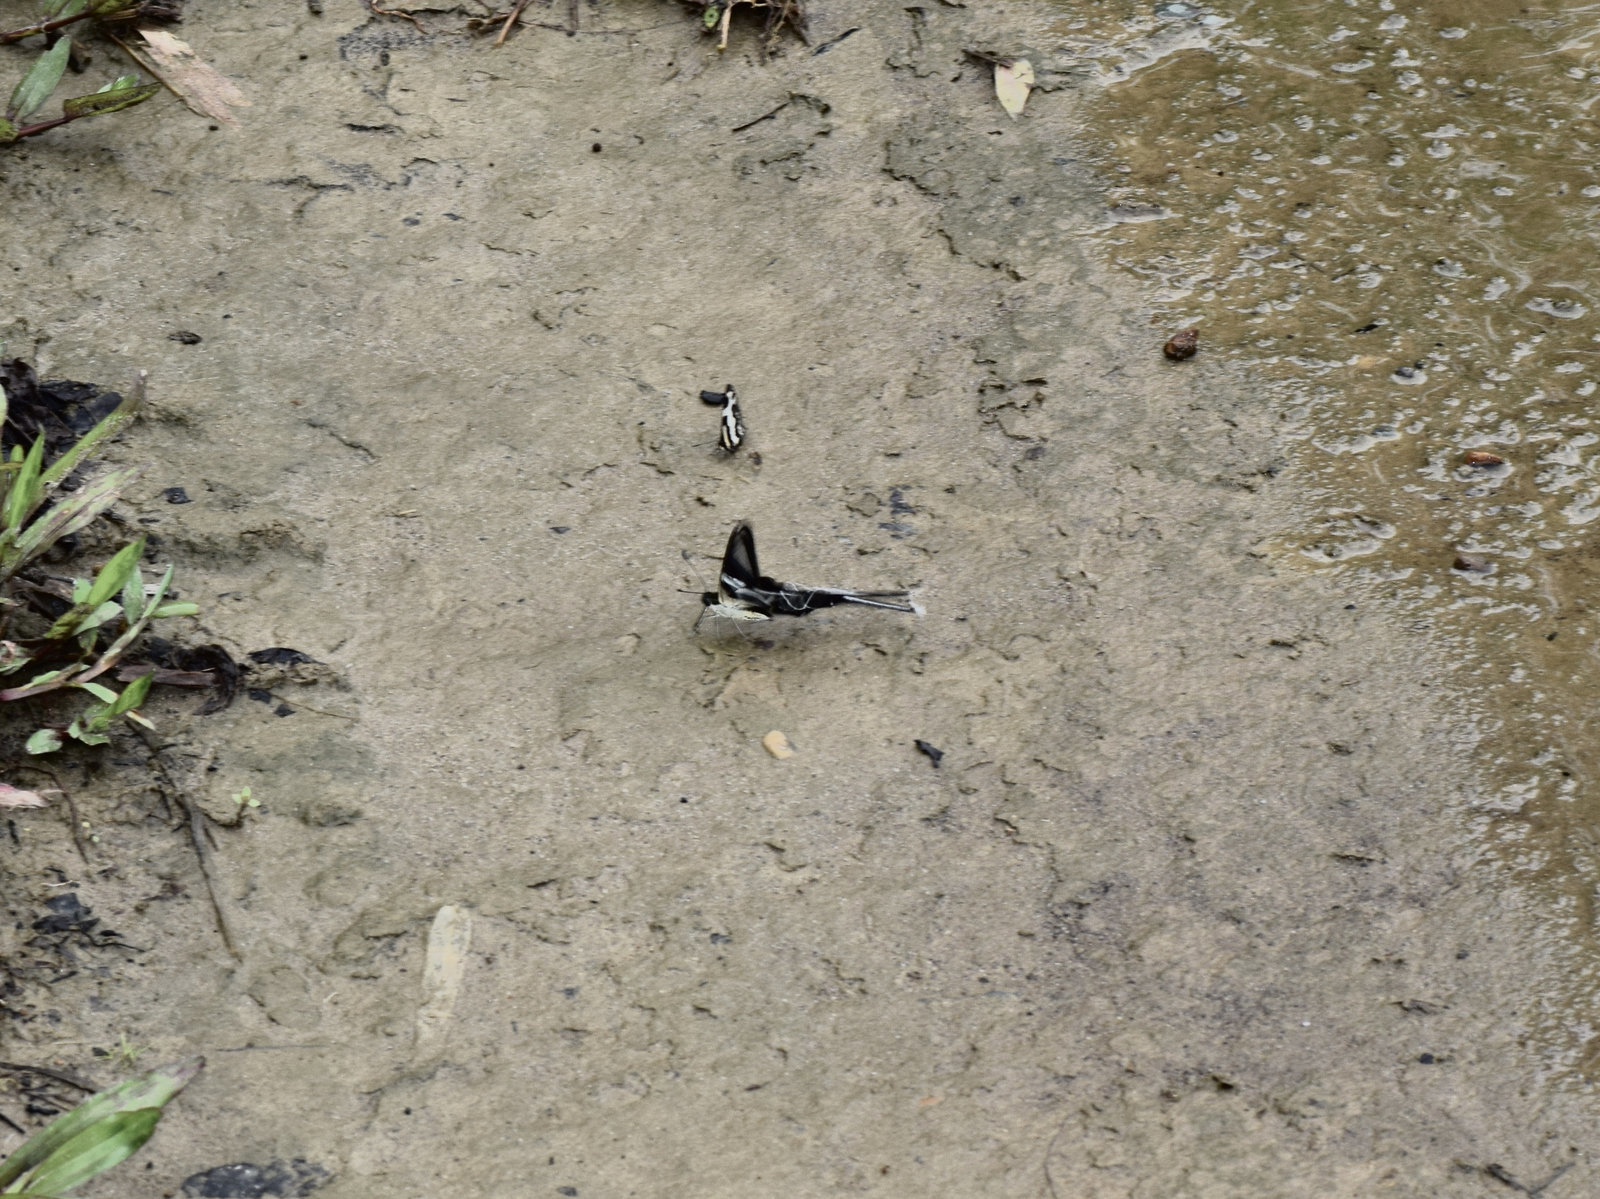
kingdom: Animalia
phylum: Arthropoda
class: Insecta
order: Lepidoptera
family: Papilionidae
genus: Lamproptera
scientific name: Lamproptera curius
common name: White dragontail
